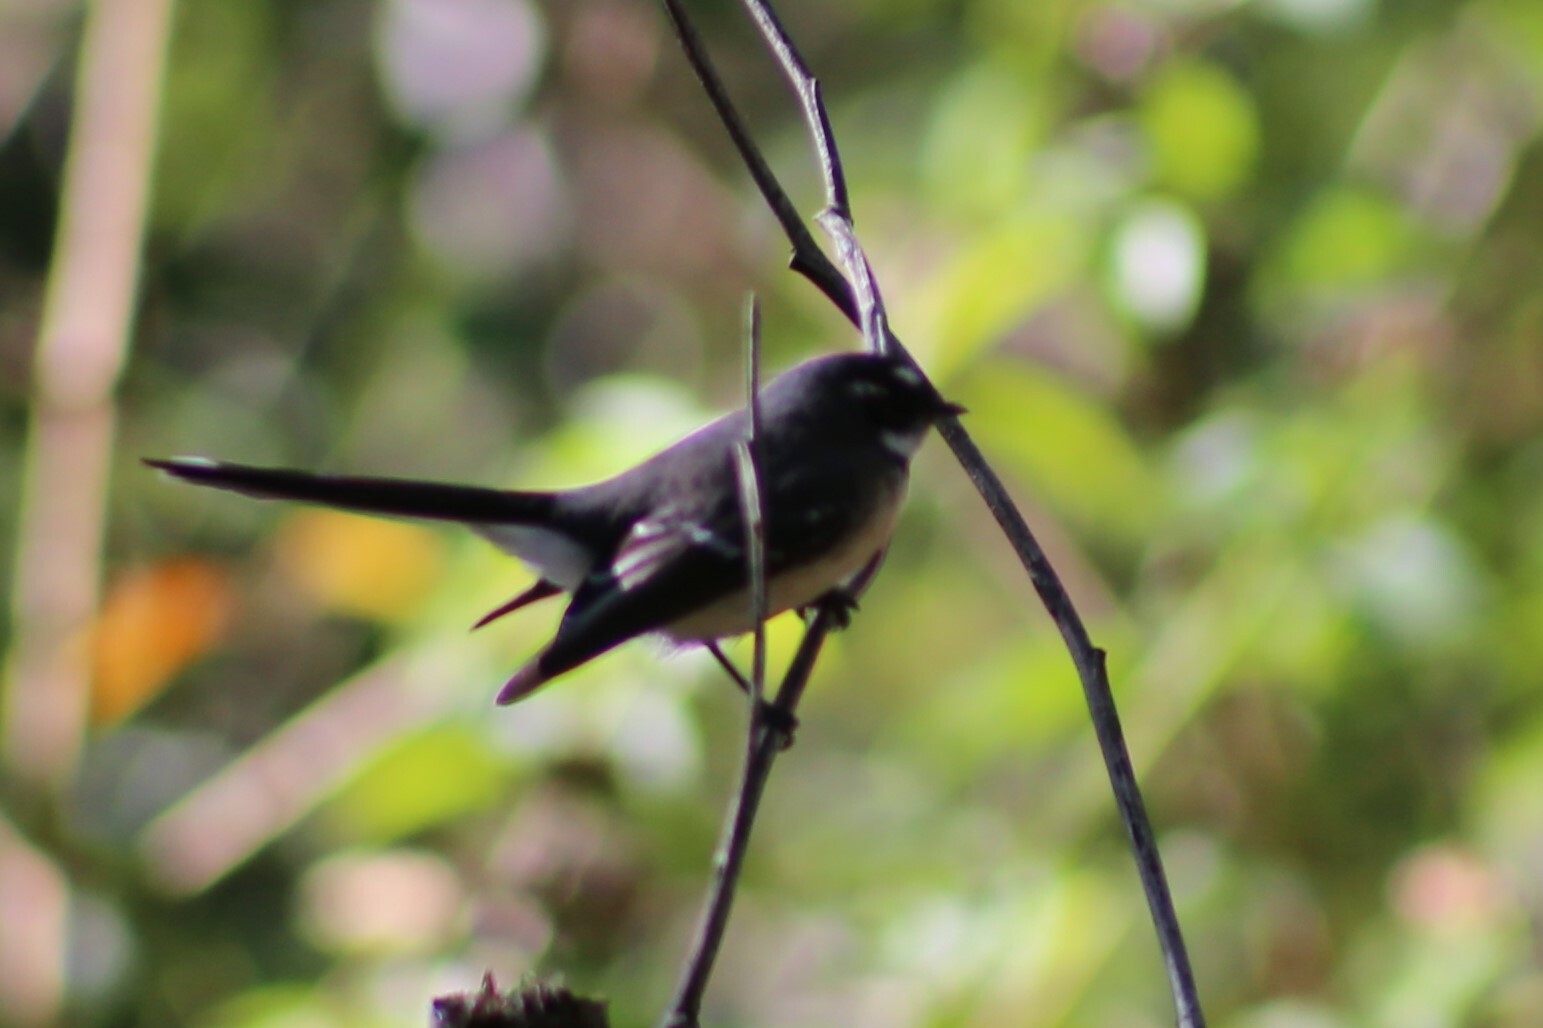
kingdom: Animalia
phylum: Chordata
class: Aves
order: Passeriformes
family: Rhipiduridae
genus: Rhipidura
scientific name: Rhipidura albiscapa
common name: Grey fantail
